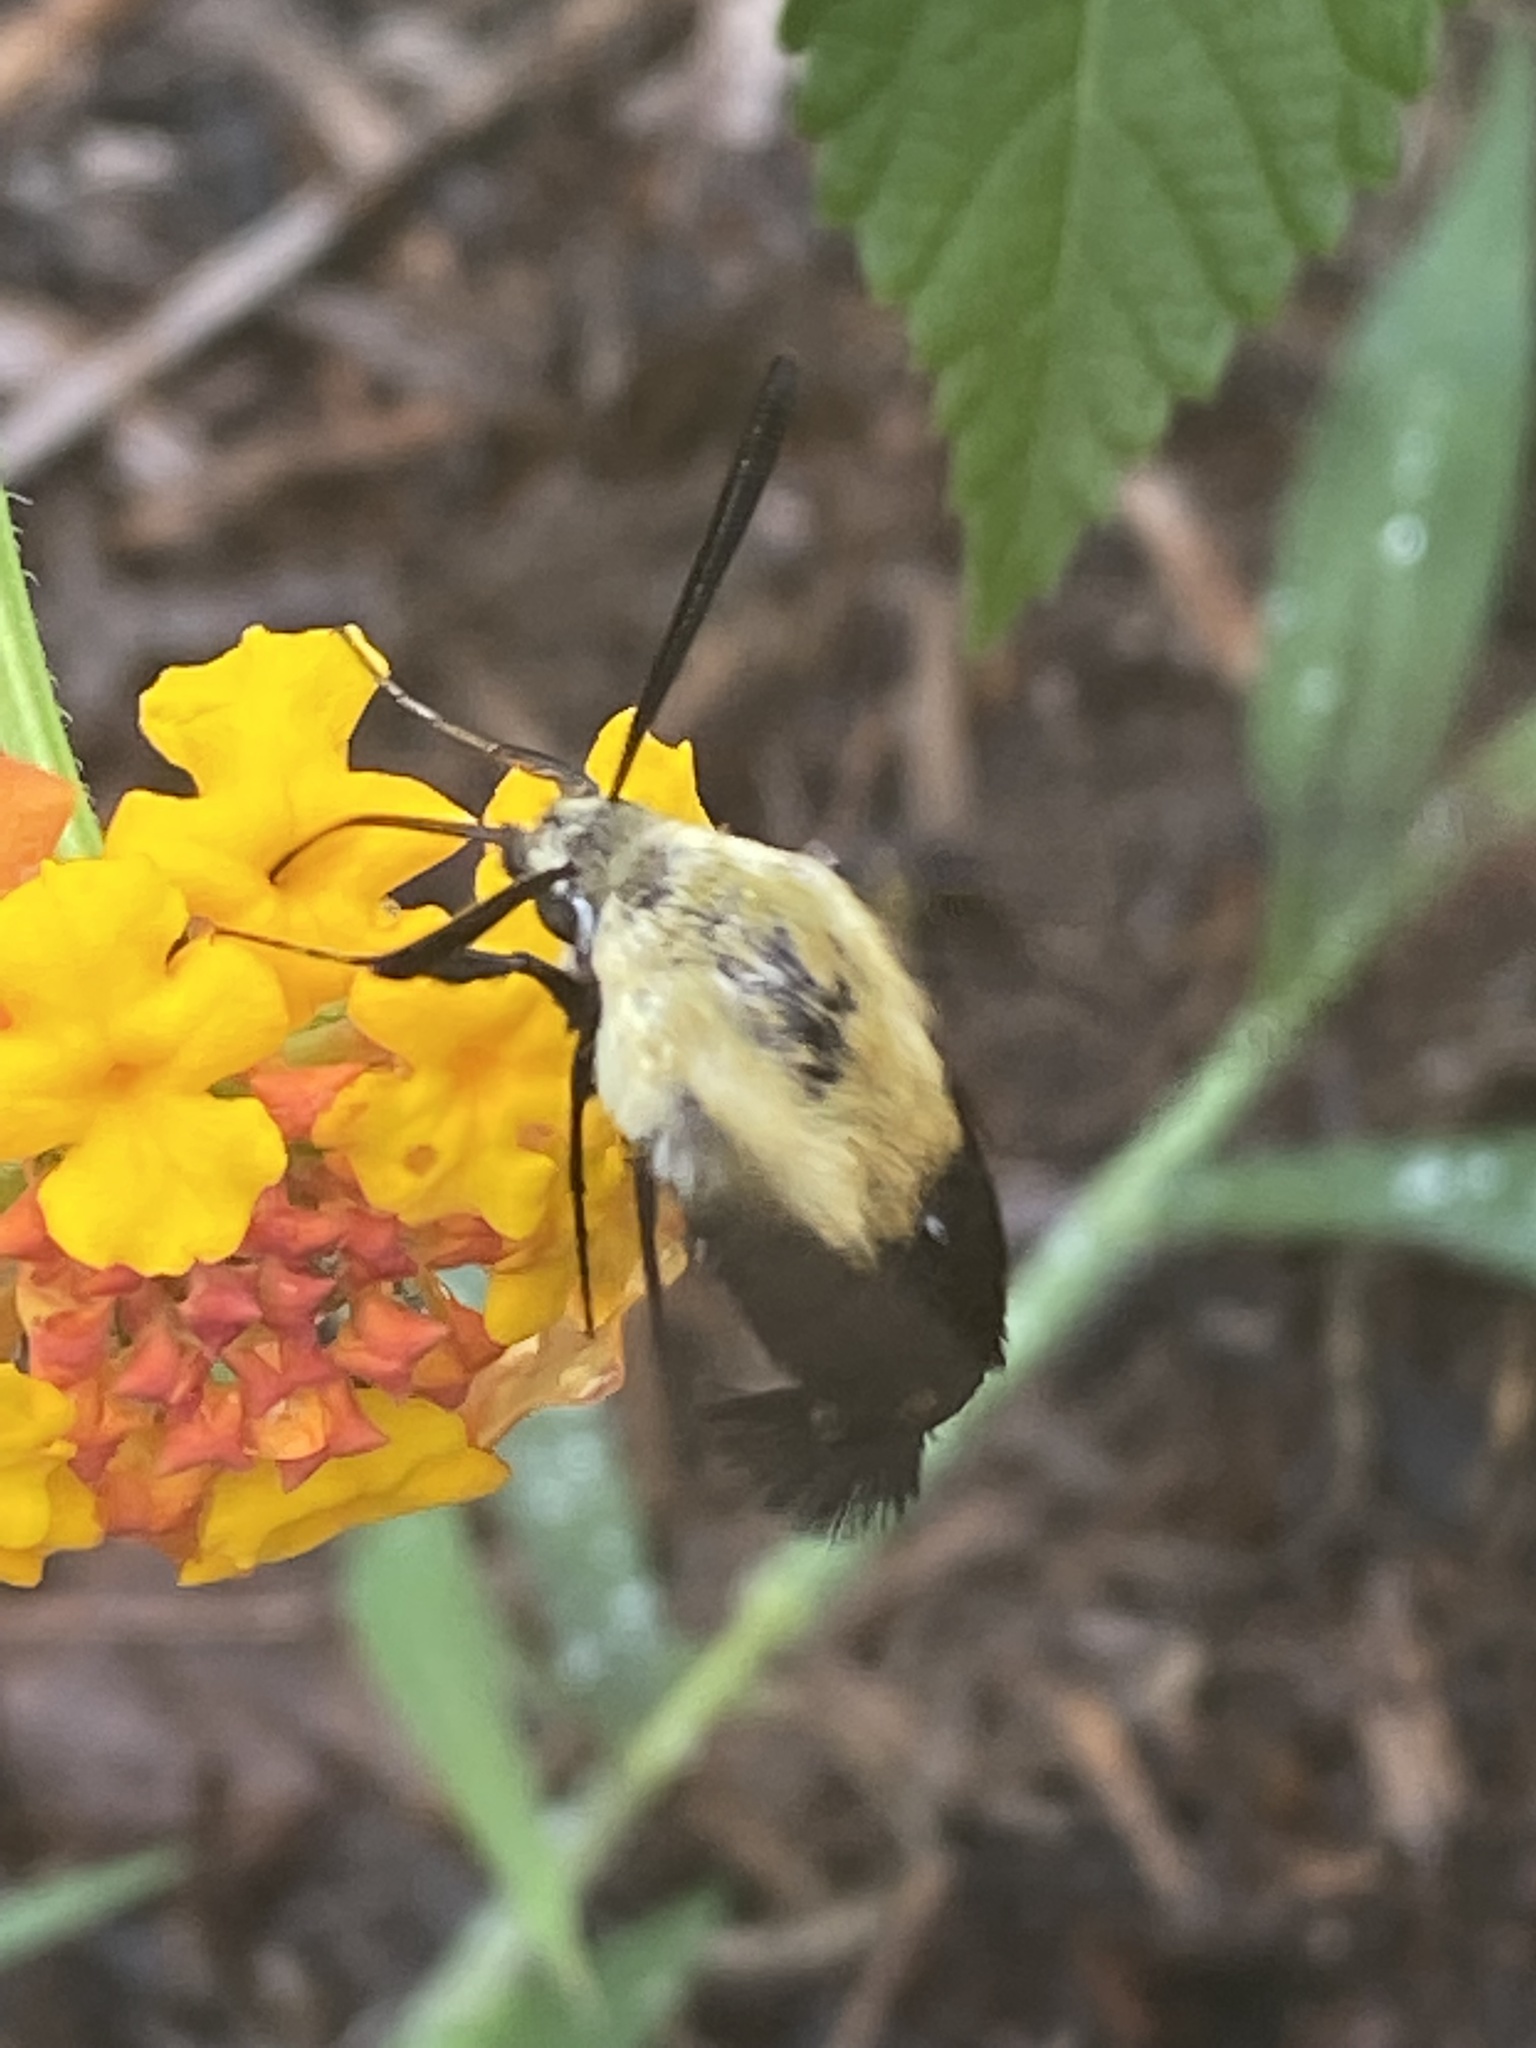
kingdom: Animalia
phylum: Arthropoda
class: Insecta
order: Lepidoptera
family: Sphingidae
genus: Hemaris
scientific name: Hemaris diffinis
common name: Bumblebee moth
